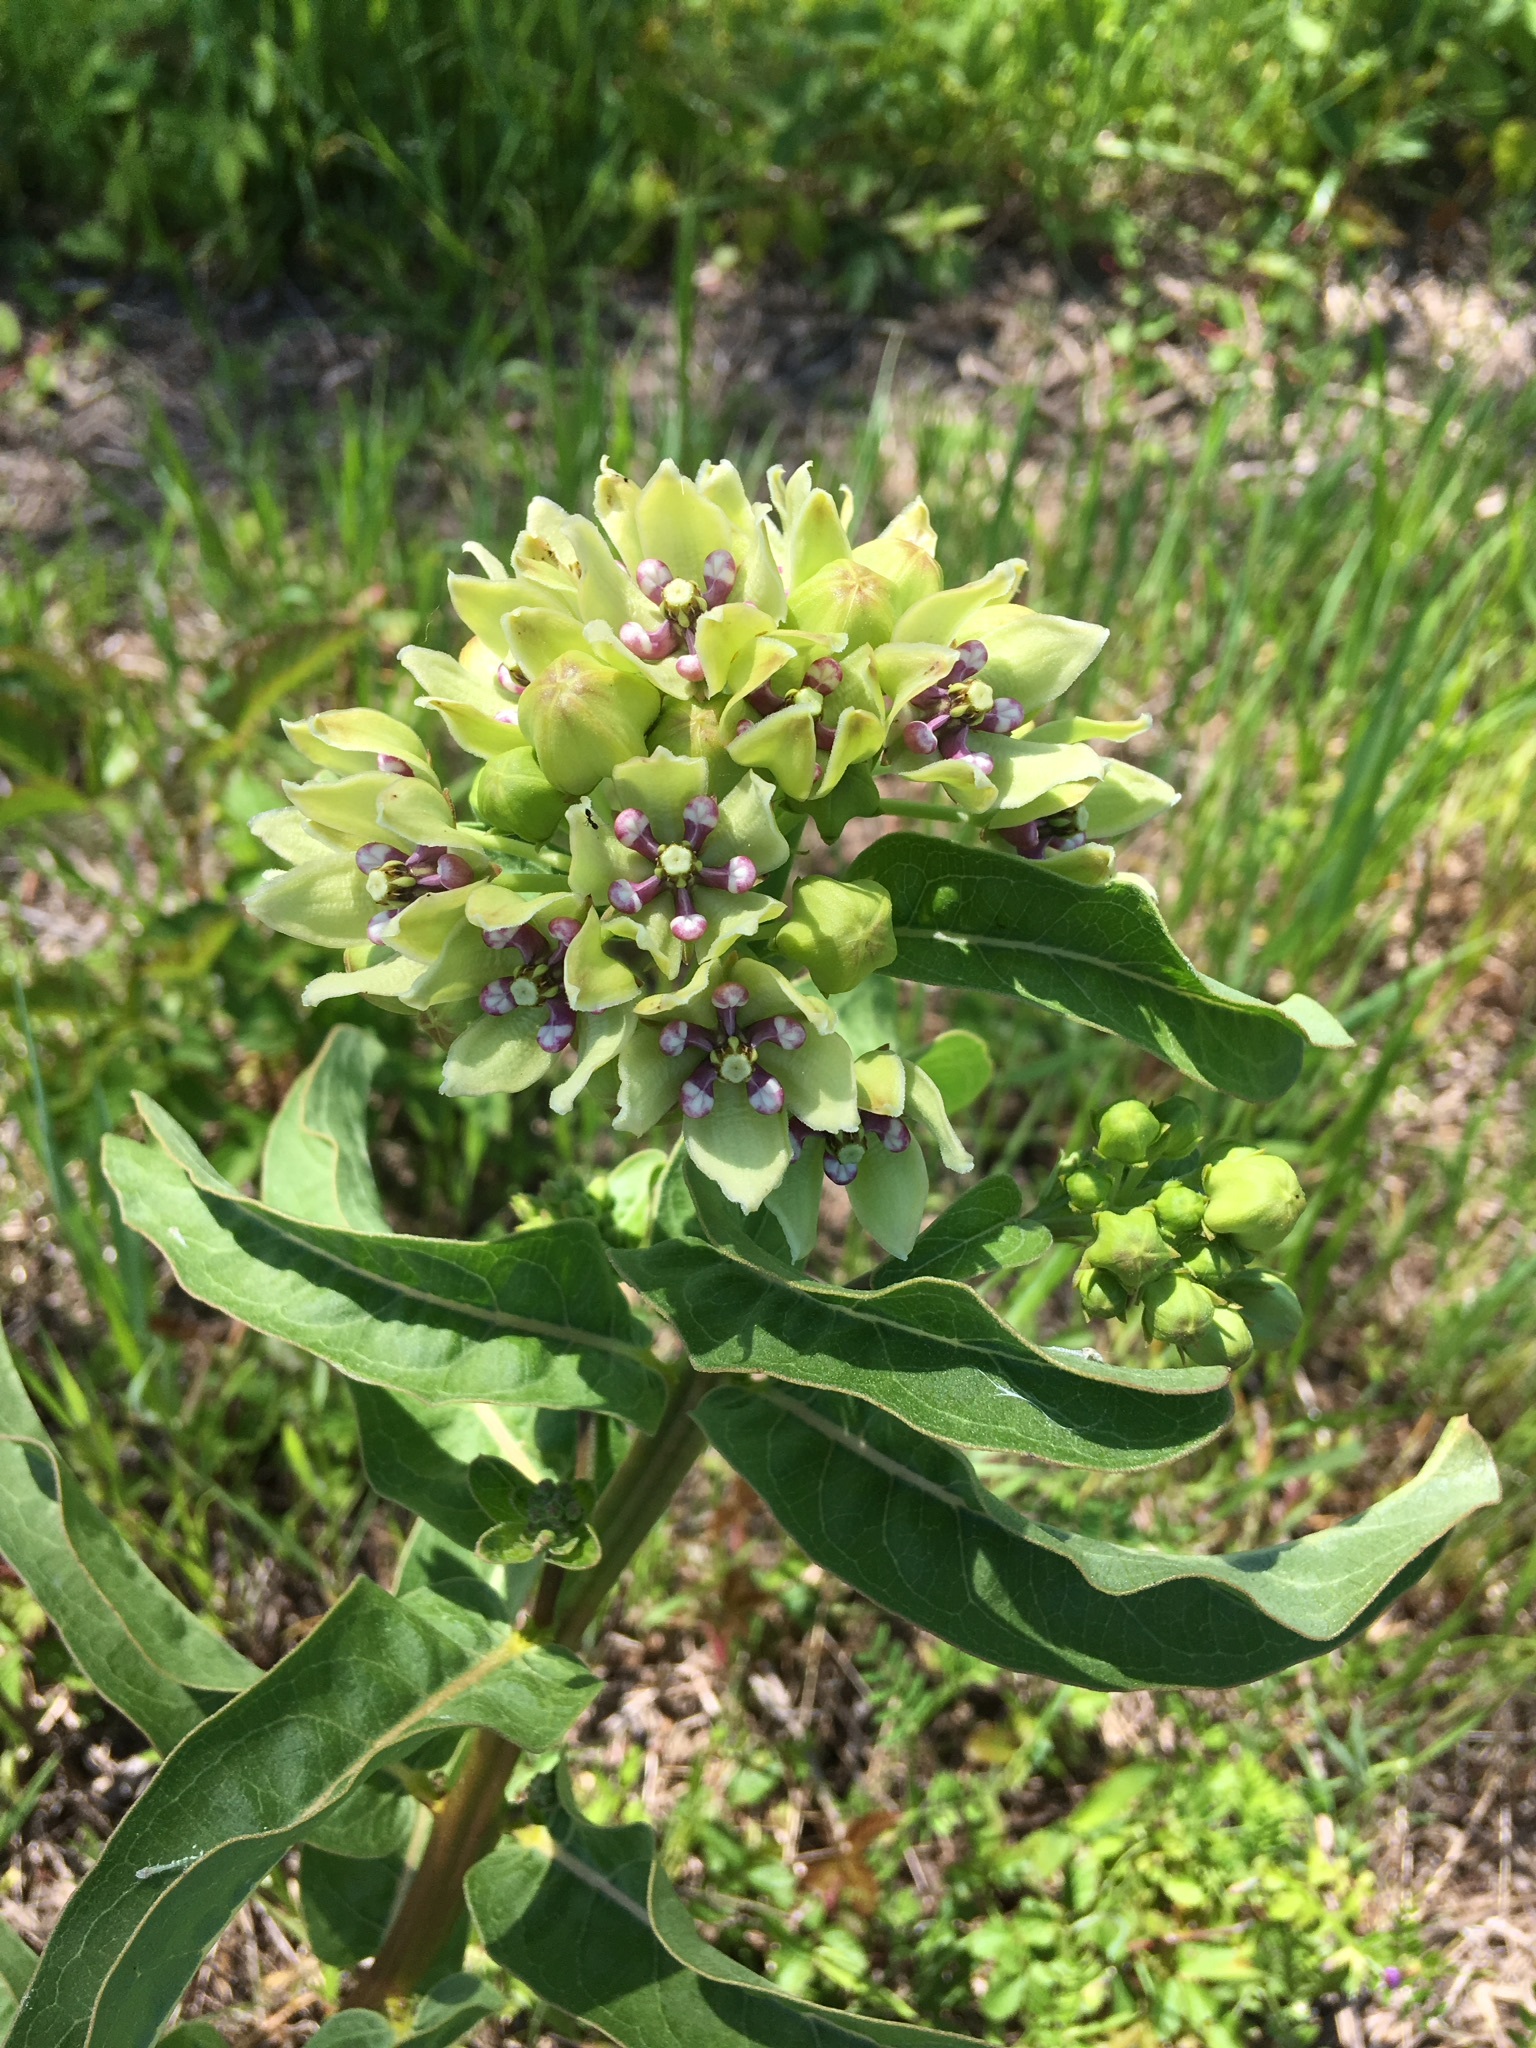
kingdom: Plantae
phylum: Tracheophyta
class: Magnoliopsida
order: Gentianales
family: Apocynaceae
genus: Asclepias
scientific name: Asclepias viridis
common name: Antelope-horns
